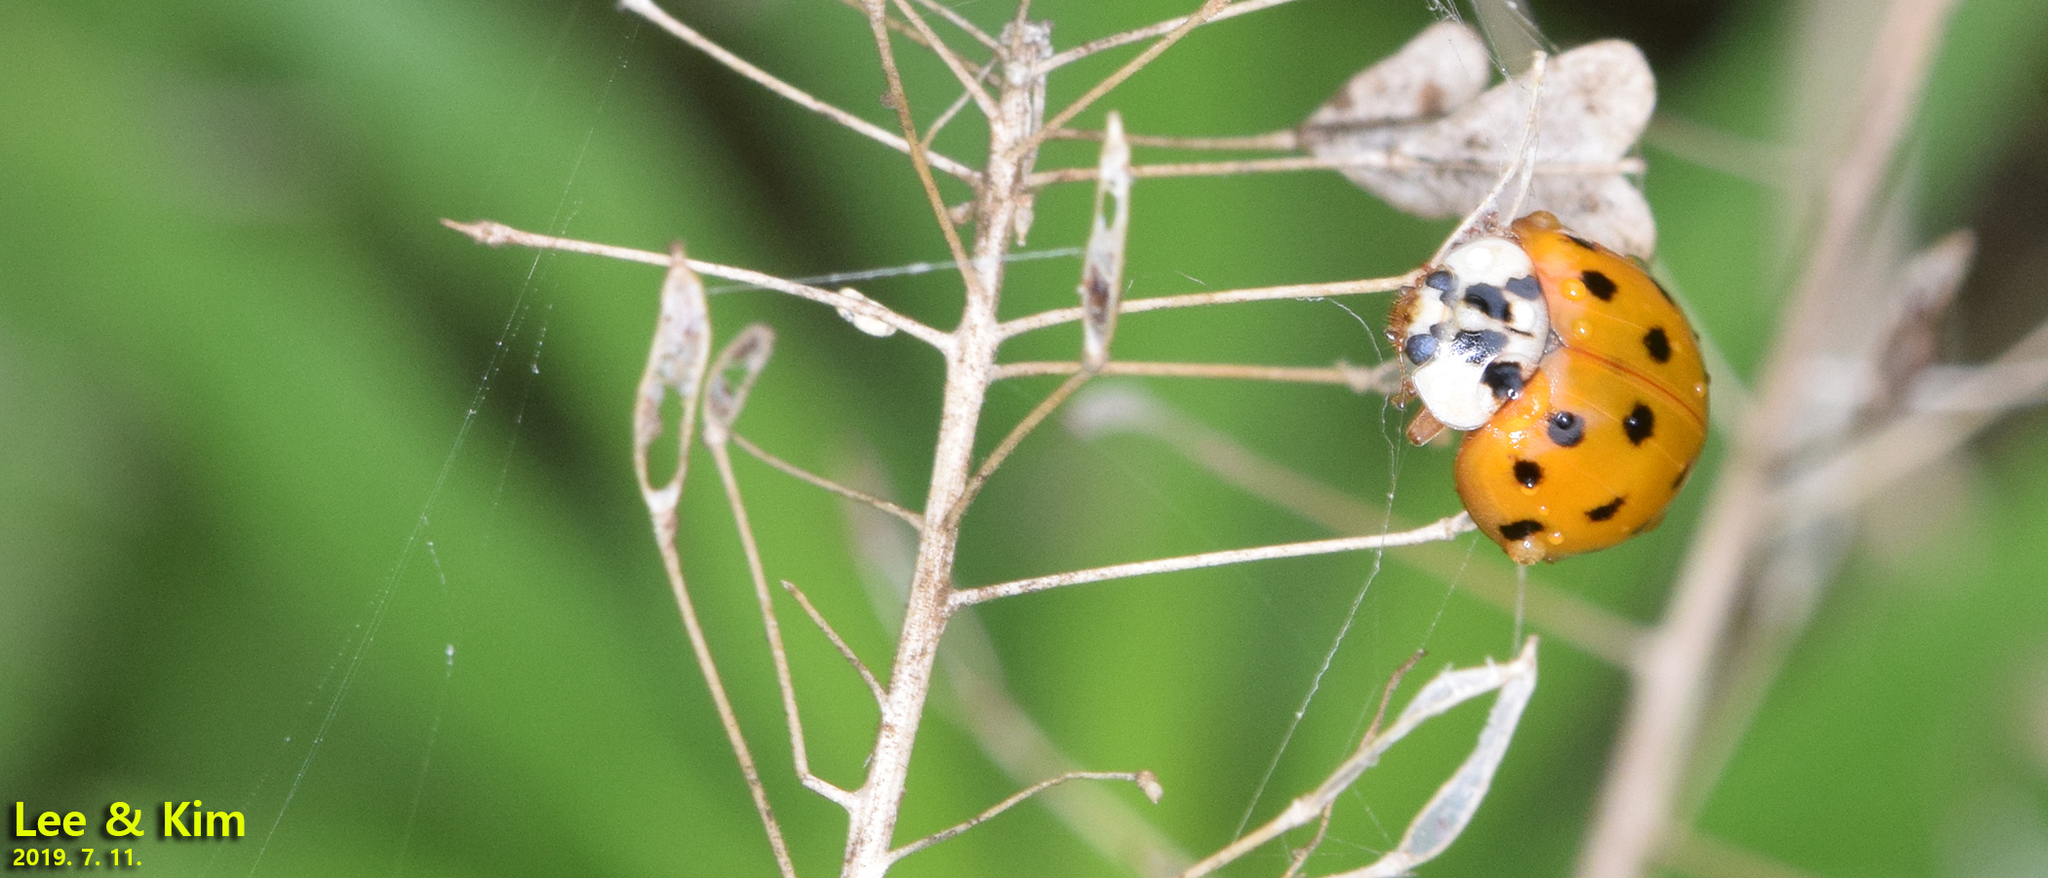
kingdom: Animalia
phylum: Arthropoda
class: Insecta
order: Coleoptera
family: Coccinellidae
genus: Harmonia
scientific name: Harmonia axyridis
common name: Harlequin ladybird
